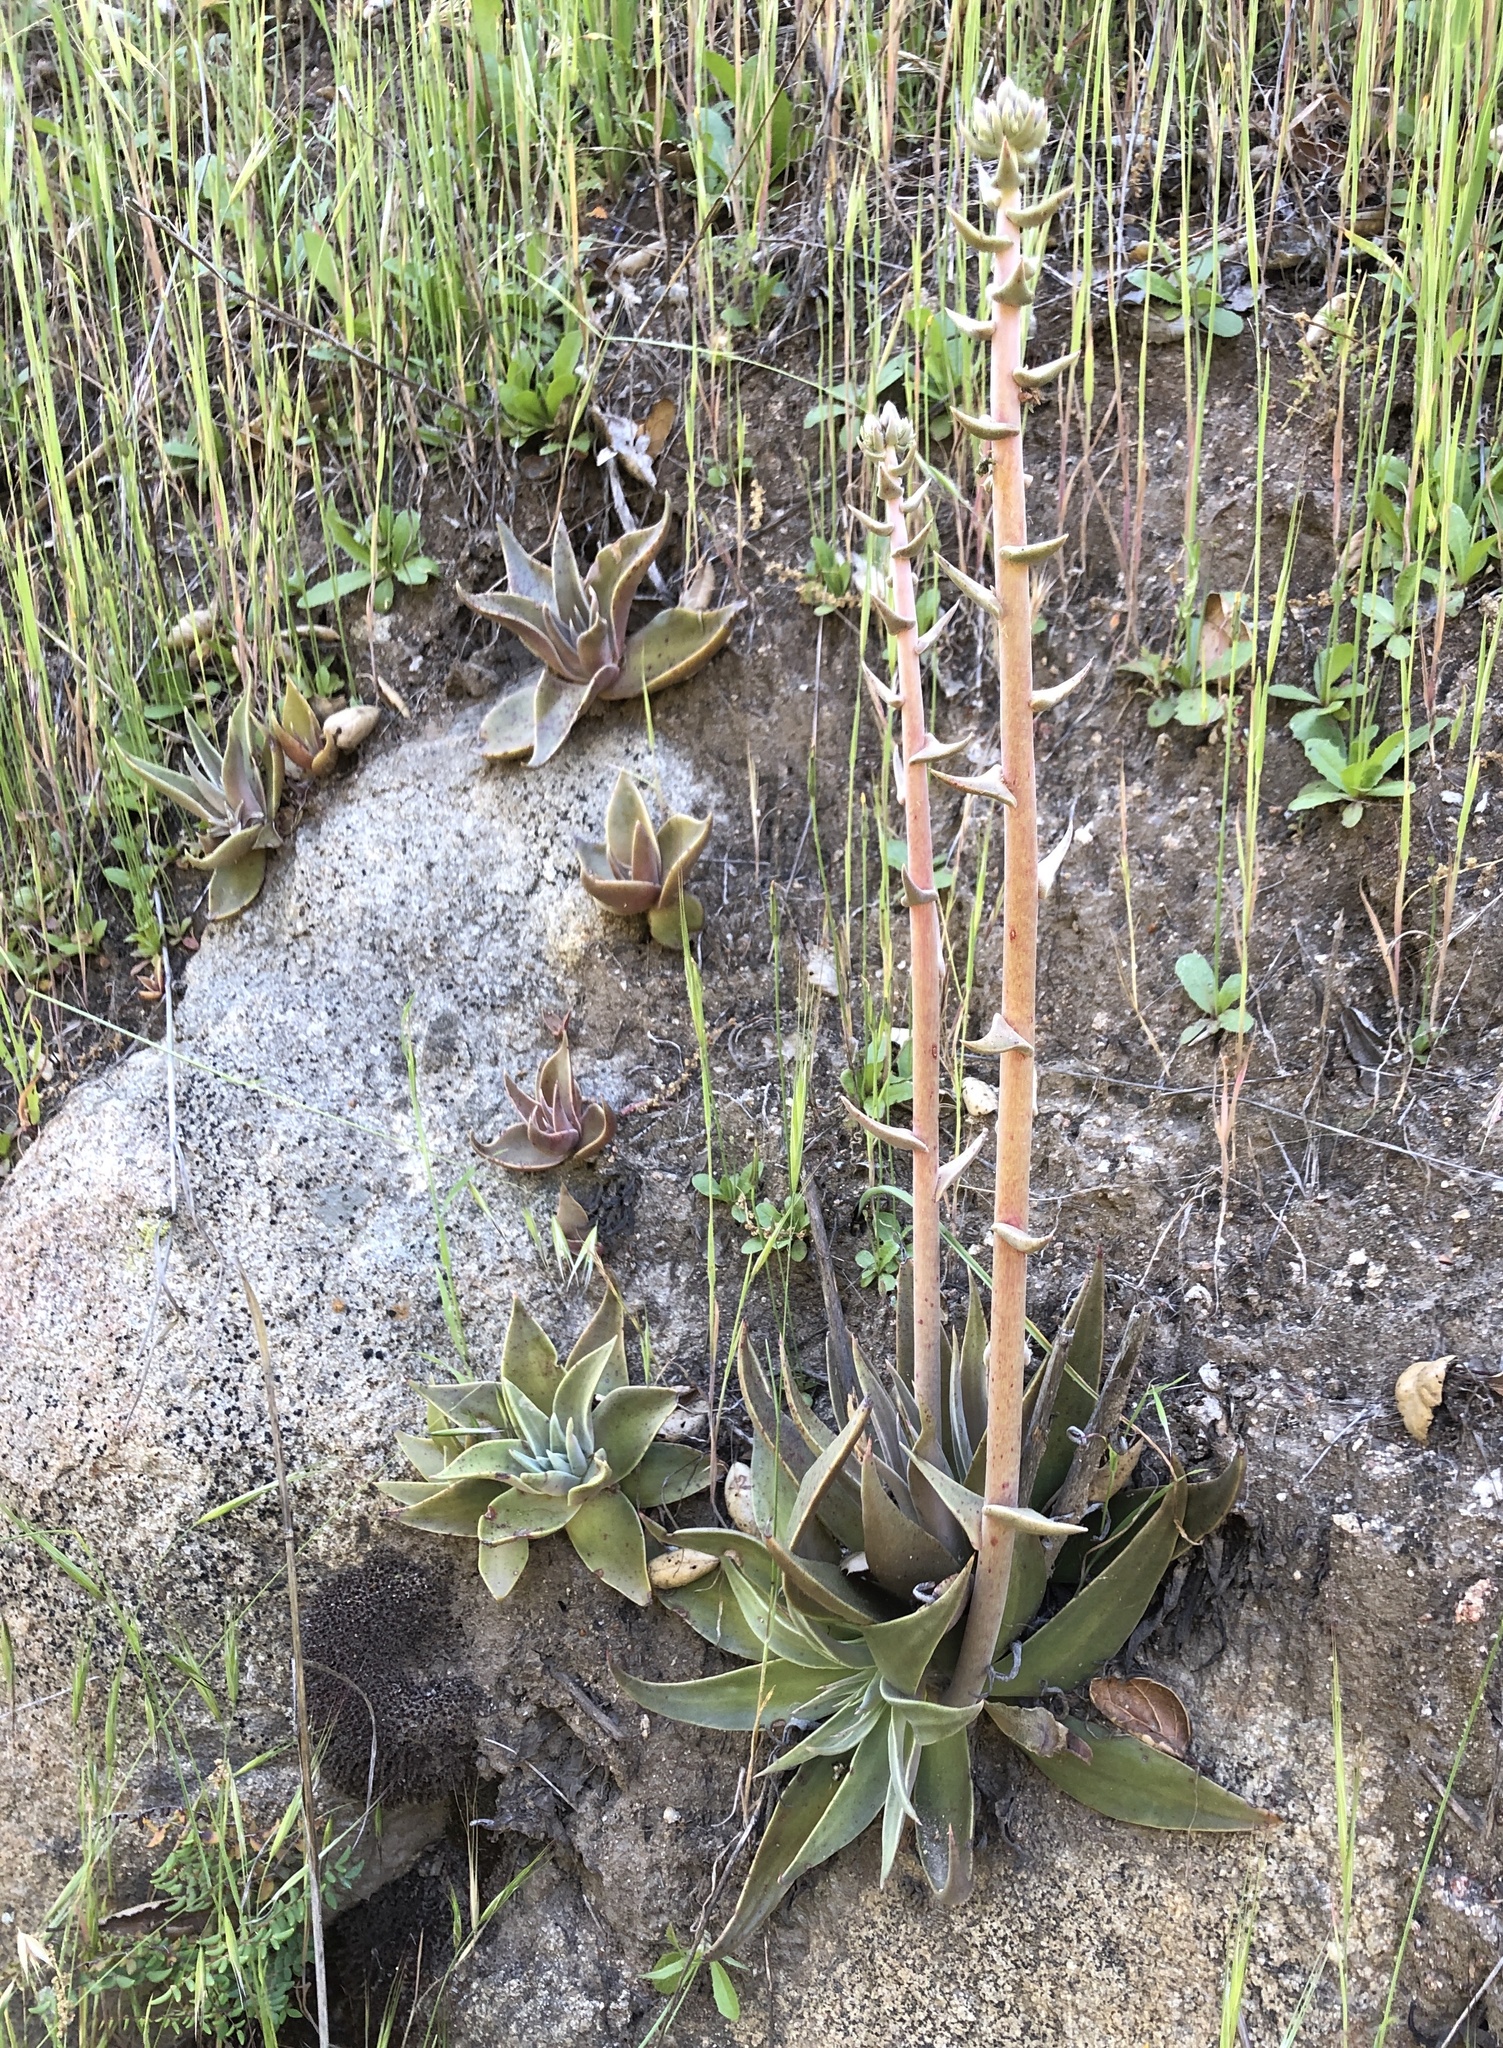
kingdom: Plantae
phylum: Tracheophyta
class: Magnoliopsida
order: Saxifragales
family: Crassulaceae
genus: Dudleya
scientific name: Dudleya lanceolata
